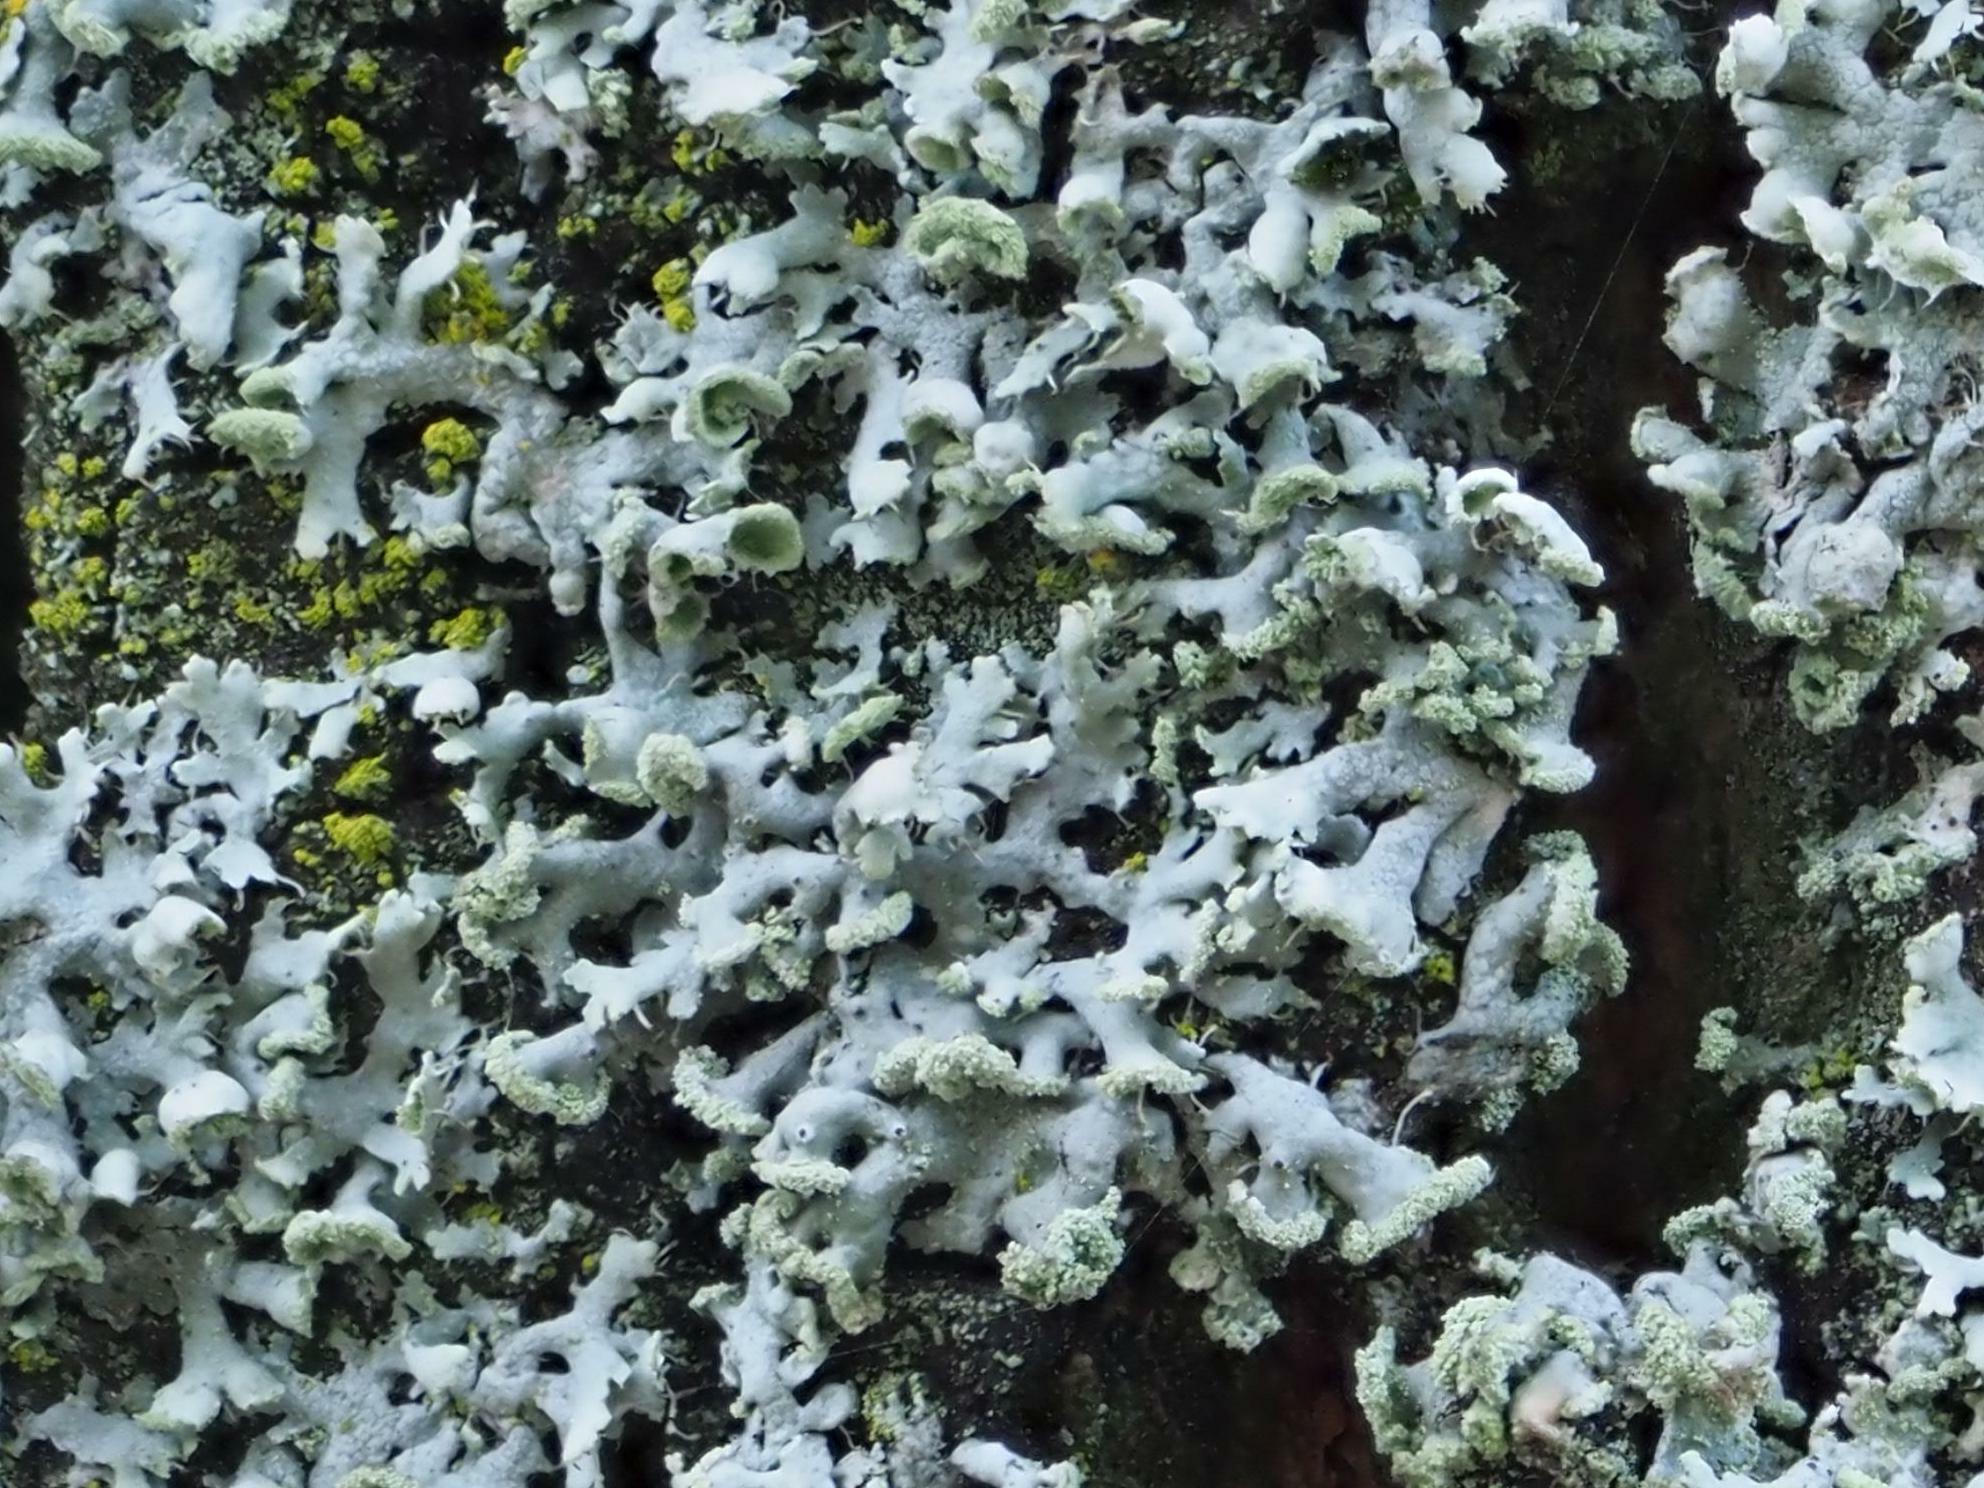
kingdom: Fungi
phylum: Ascomycota
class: Lecanoromycetes
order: Caliciales
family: Physciaceae
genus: Physcia
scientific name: Physcia tenella
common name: Fringed rosette lichen
